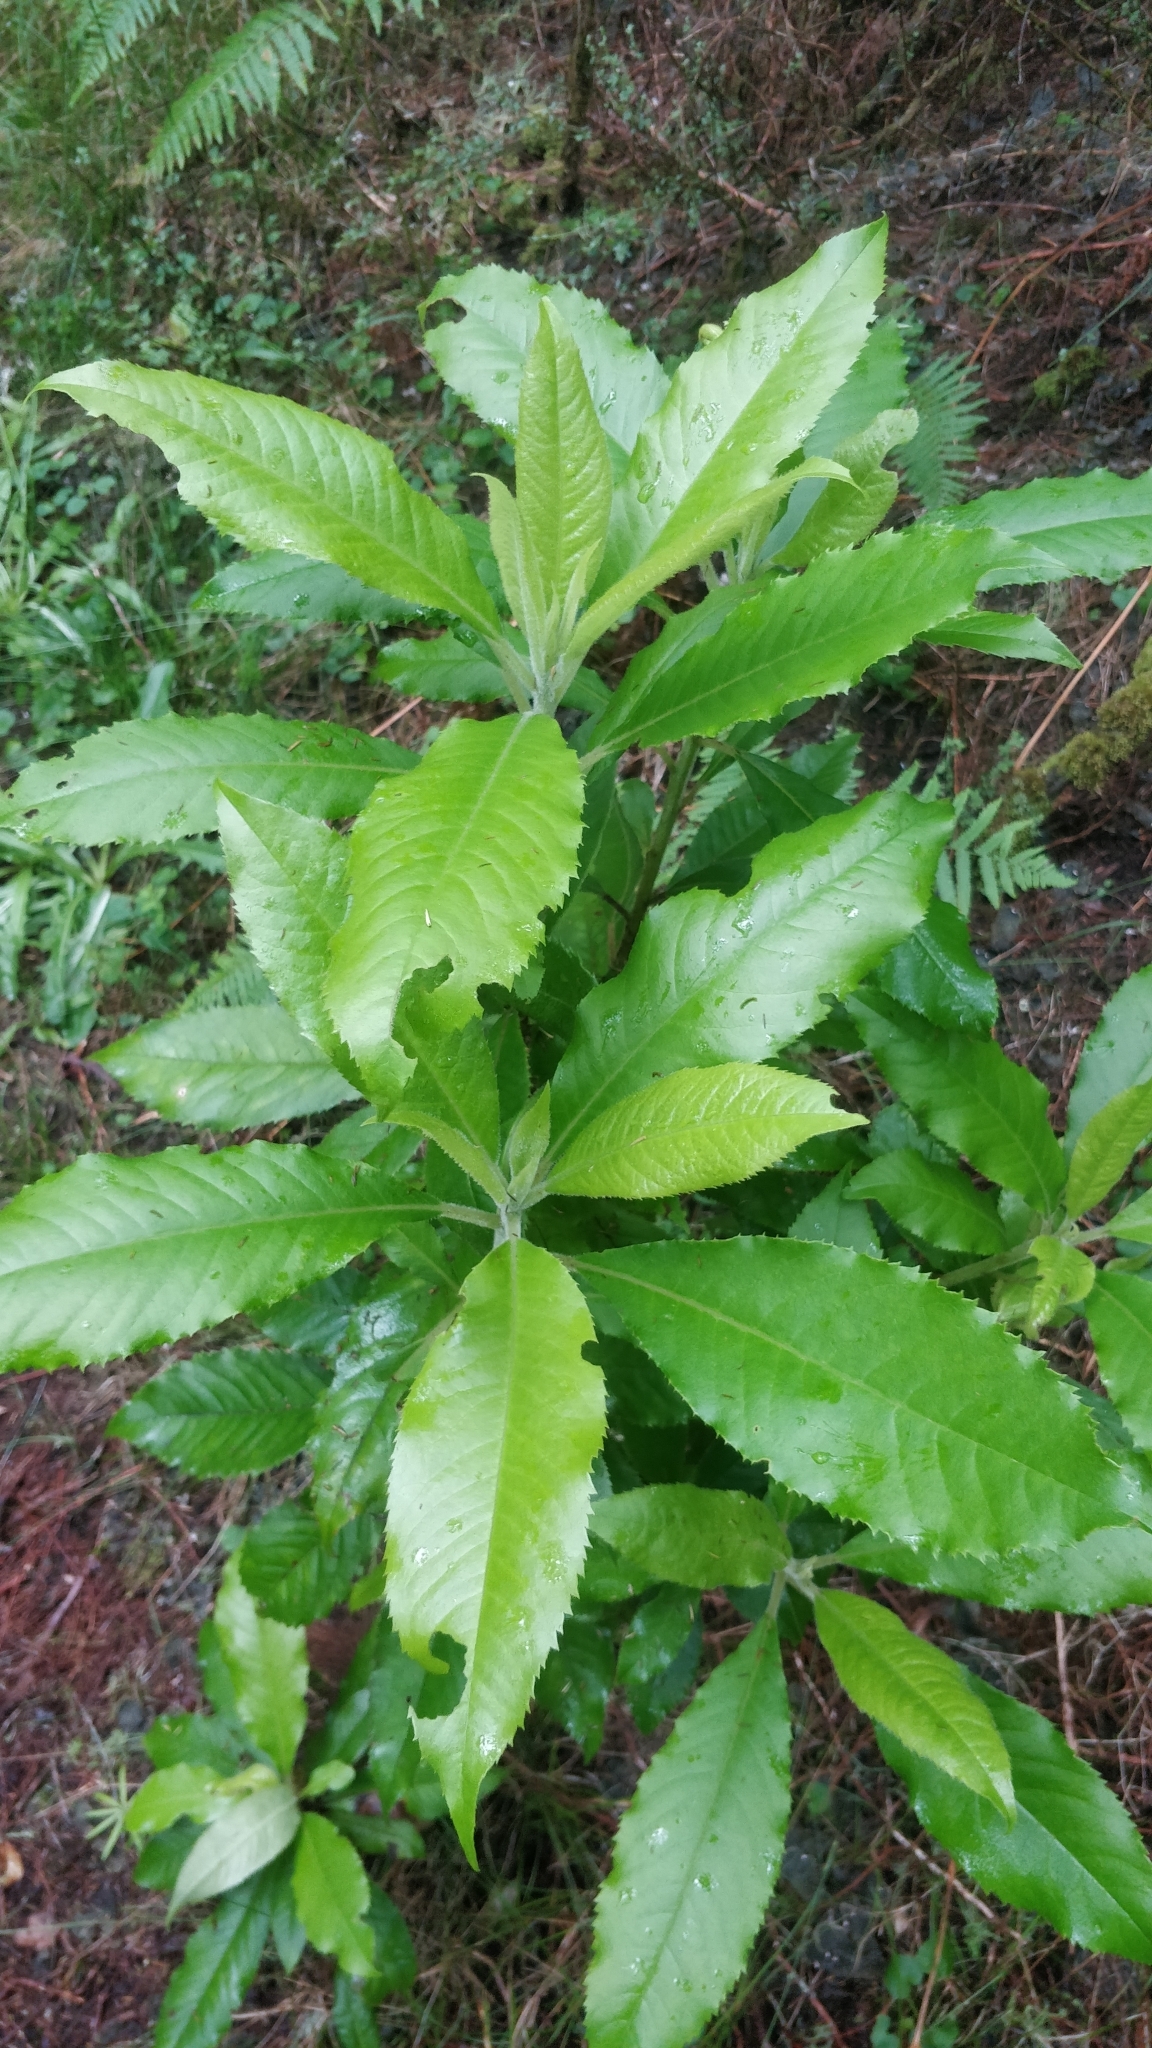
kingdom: Plantae
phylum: Tracheophyta
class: Magnoliopsida
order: Ericales
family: Clethraceae
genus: Clethra
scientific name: Clethra arborea
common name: Lily-of-the-valley-tree
